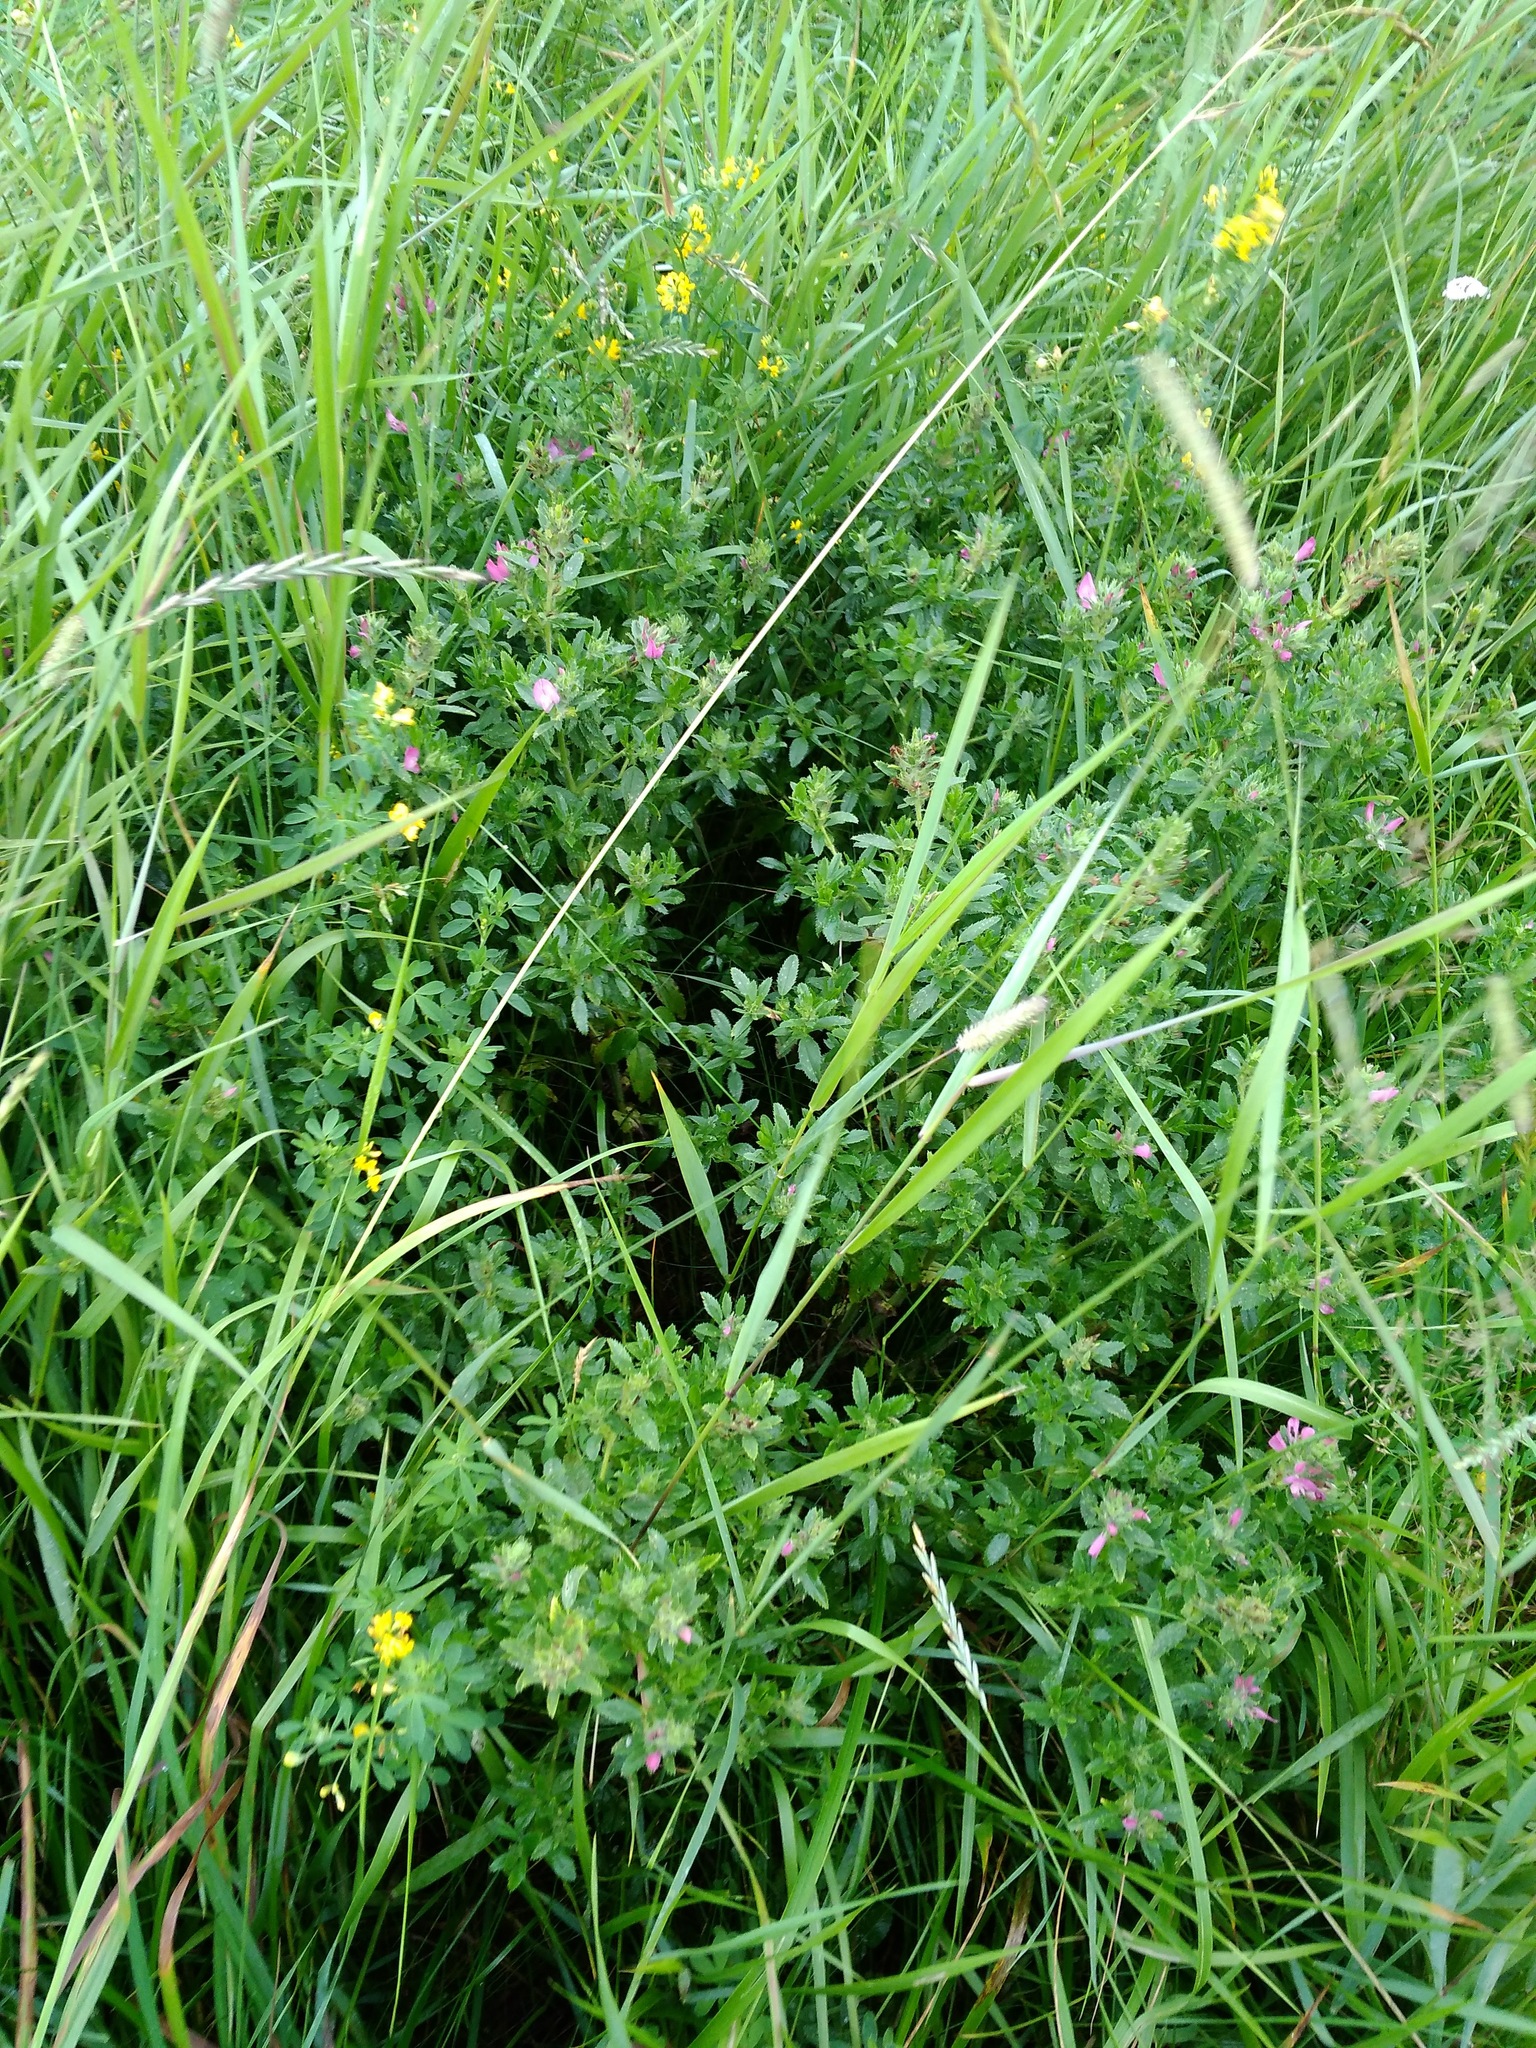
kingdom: Plantae
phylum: Tracheophyta
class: Magnoliopsida
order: Fabales
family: Fabaceae
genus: Ononis
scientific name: Ononis arvensis
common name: Field restharrow
